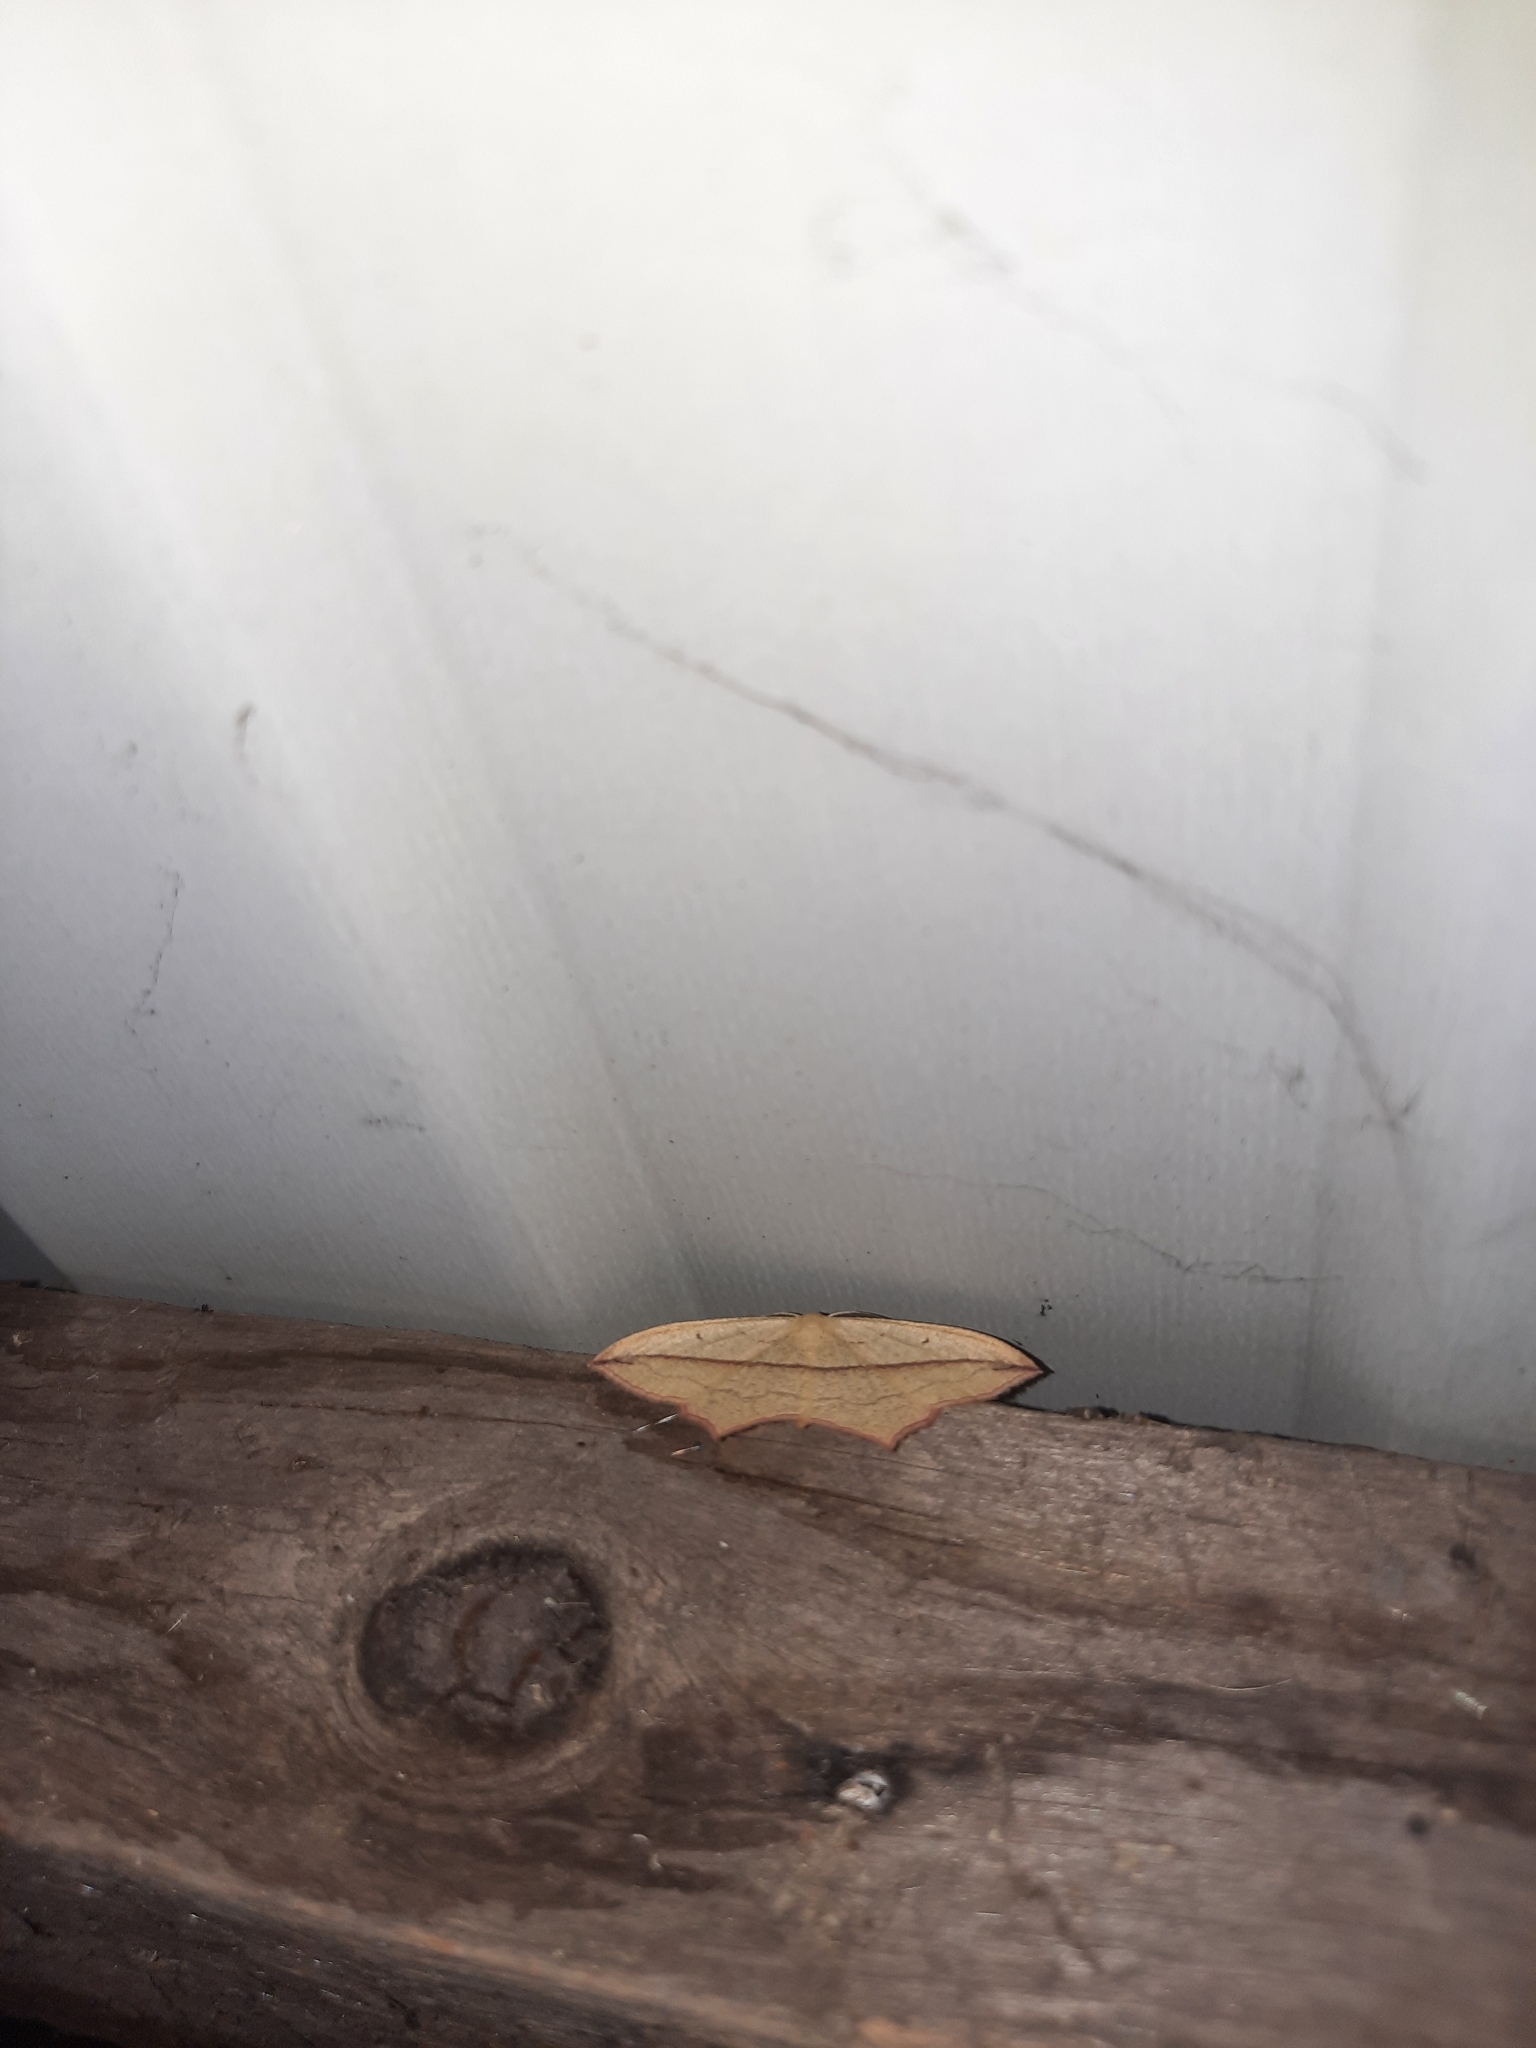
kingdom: Animalia
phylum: Arthropoda
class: Insecta
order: Lepidoptera
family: Geometridae
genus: Timandra
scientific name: Timandra comae
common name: Blood-vein
